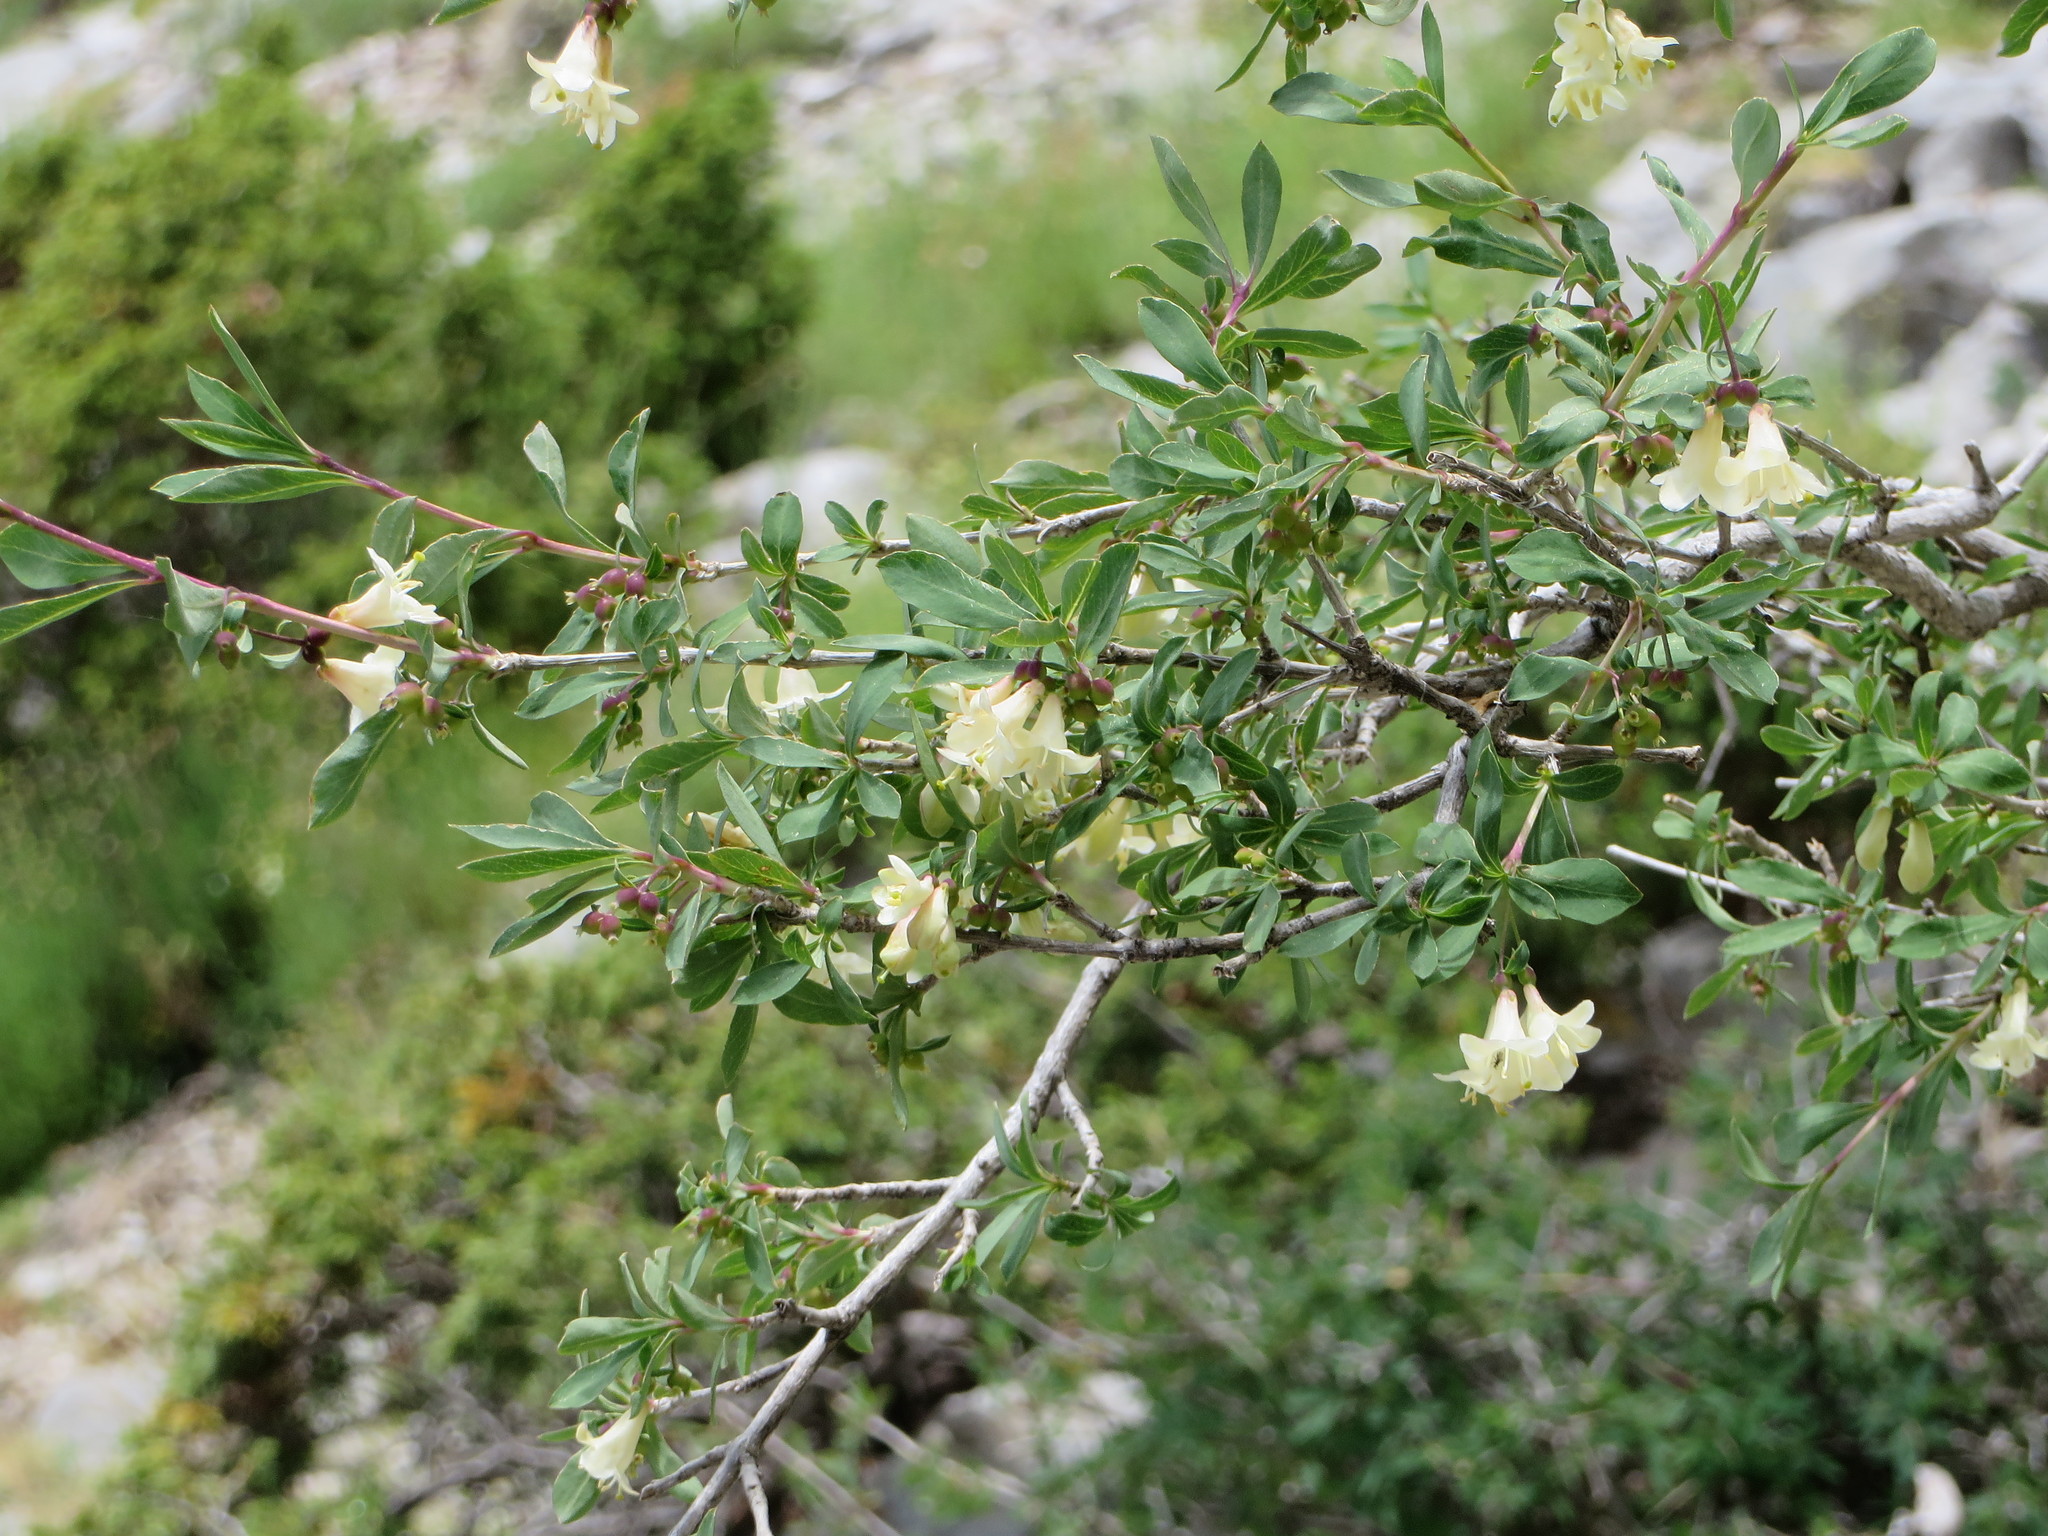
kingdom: Plantae
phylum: Tracheophyta
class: Magnoliopsida
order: Dipsacales
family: Caprifoliaceae
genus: Lonicera
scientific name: Lonicera pyrenaica
